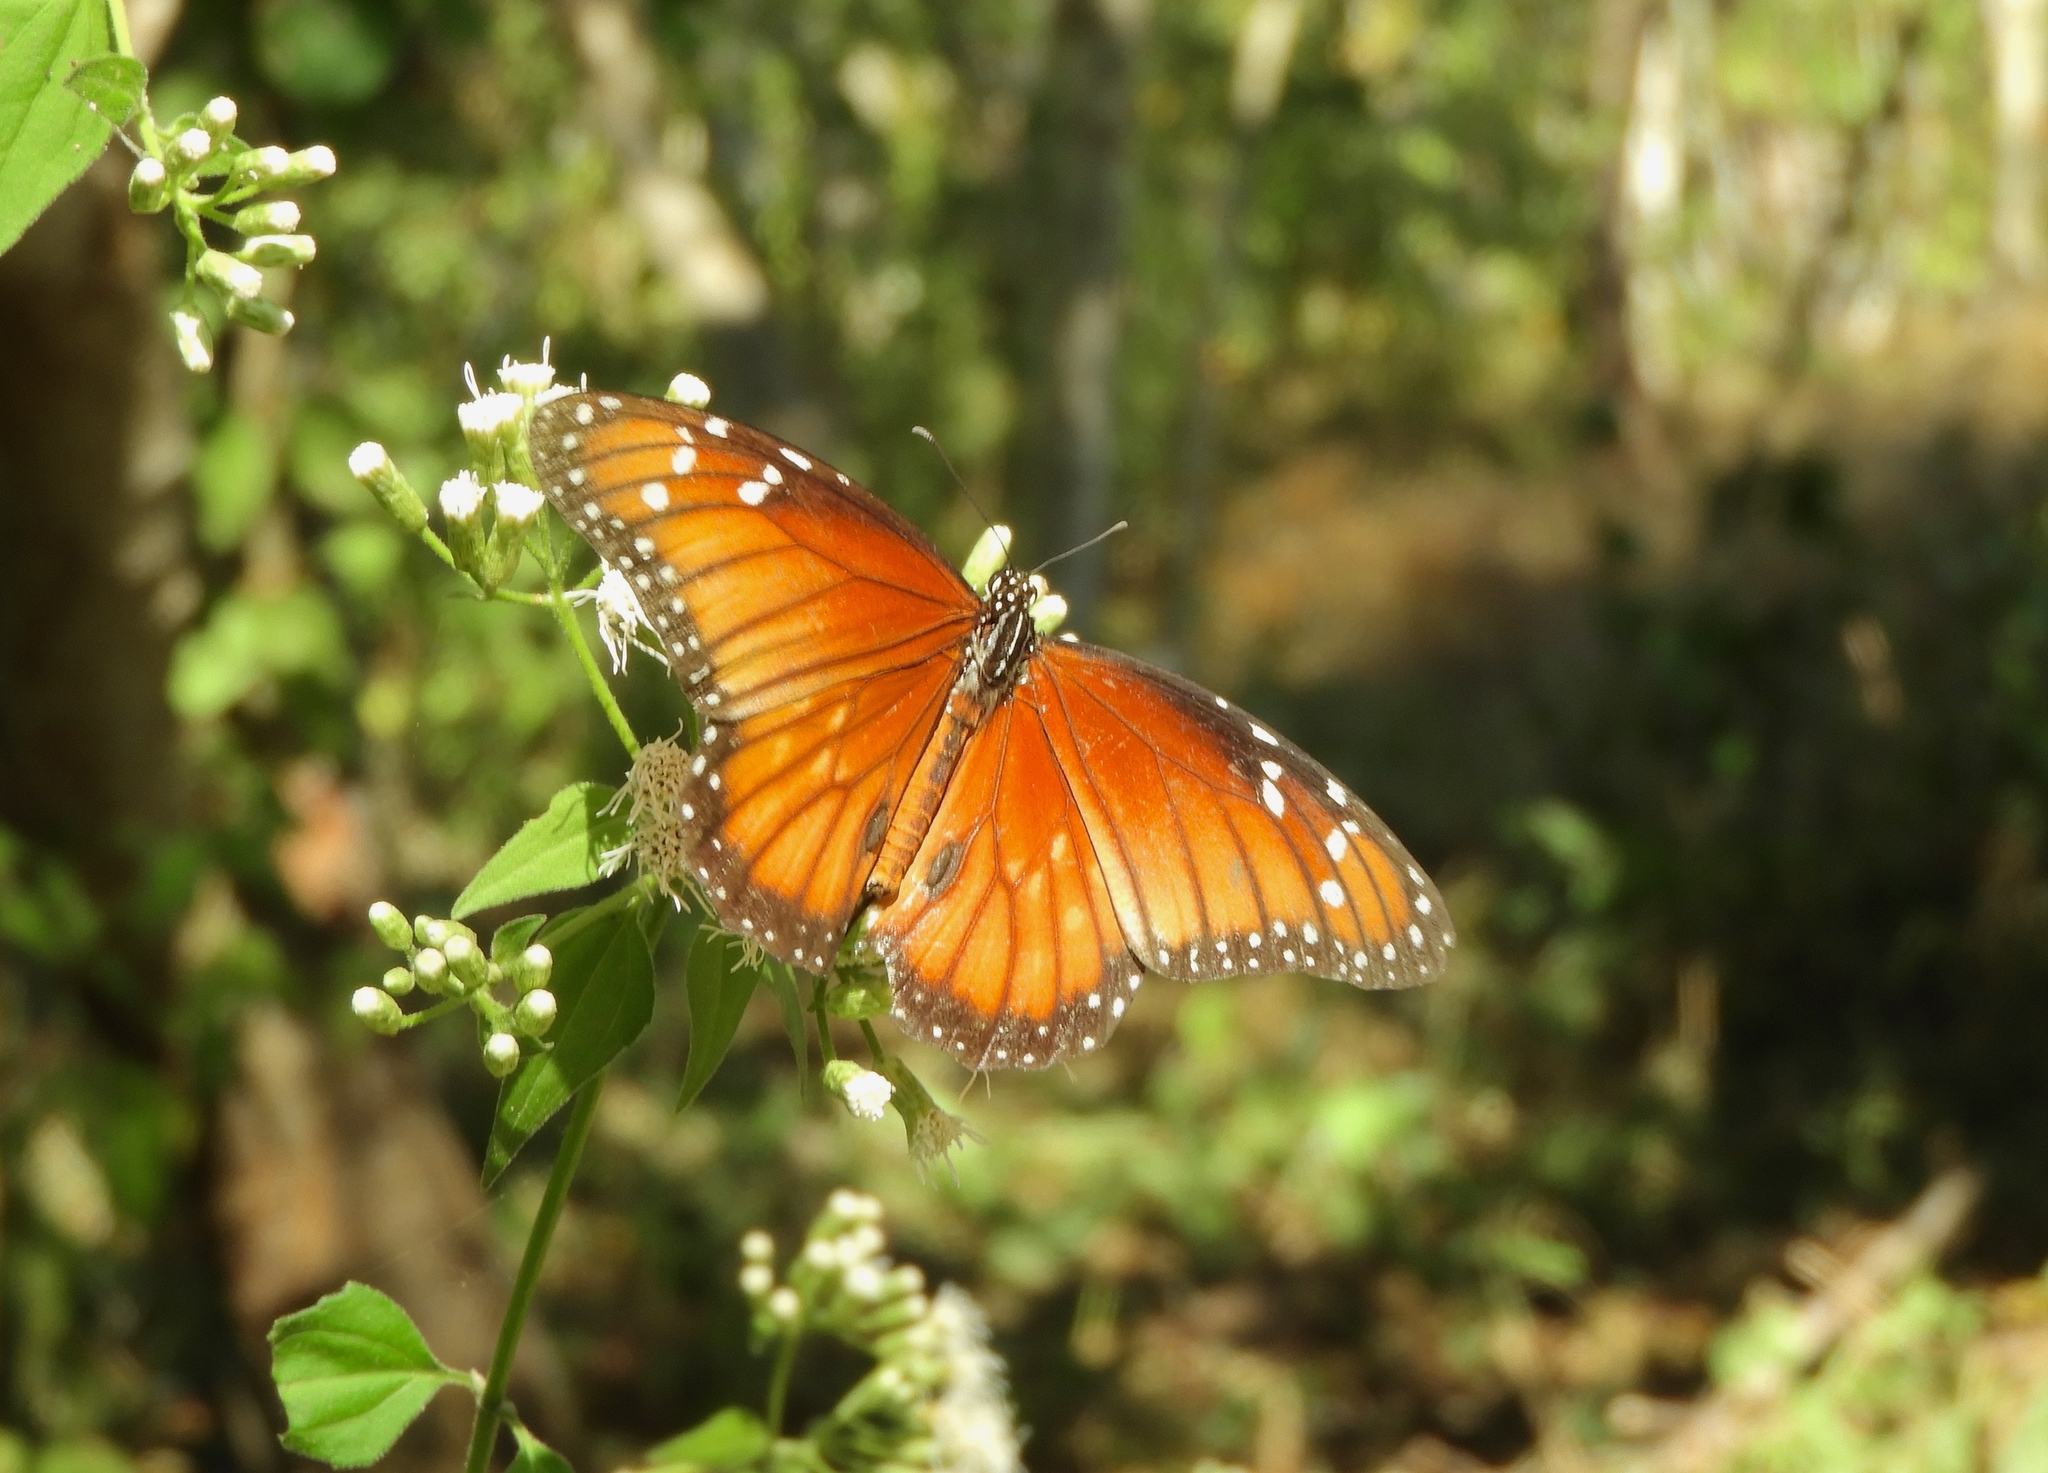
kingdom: Animalia
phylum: Arthropoda
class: Insecta
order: Lepidoptera
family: Nymphalidae
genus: Danaus
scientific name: Danaus eresimus
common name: Soldier
